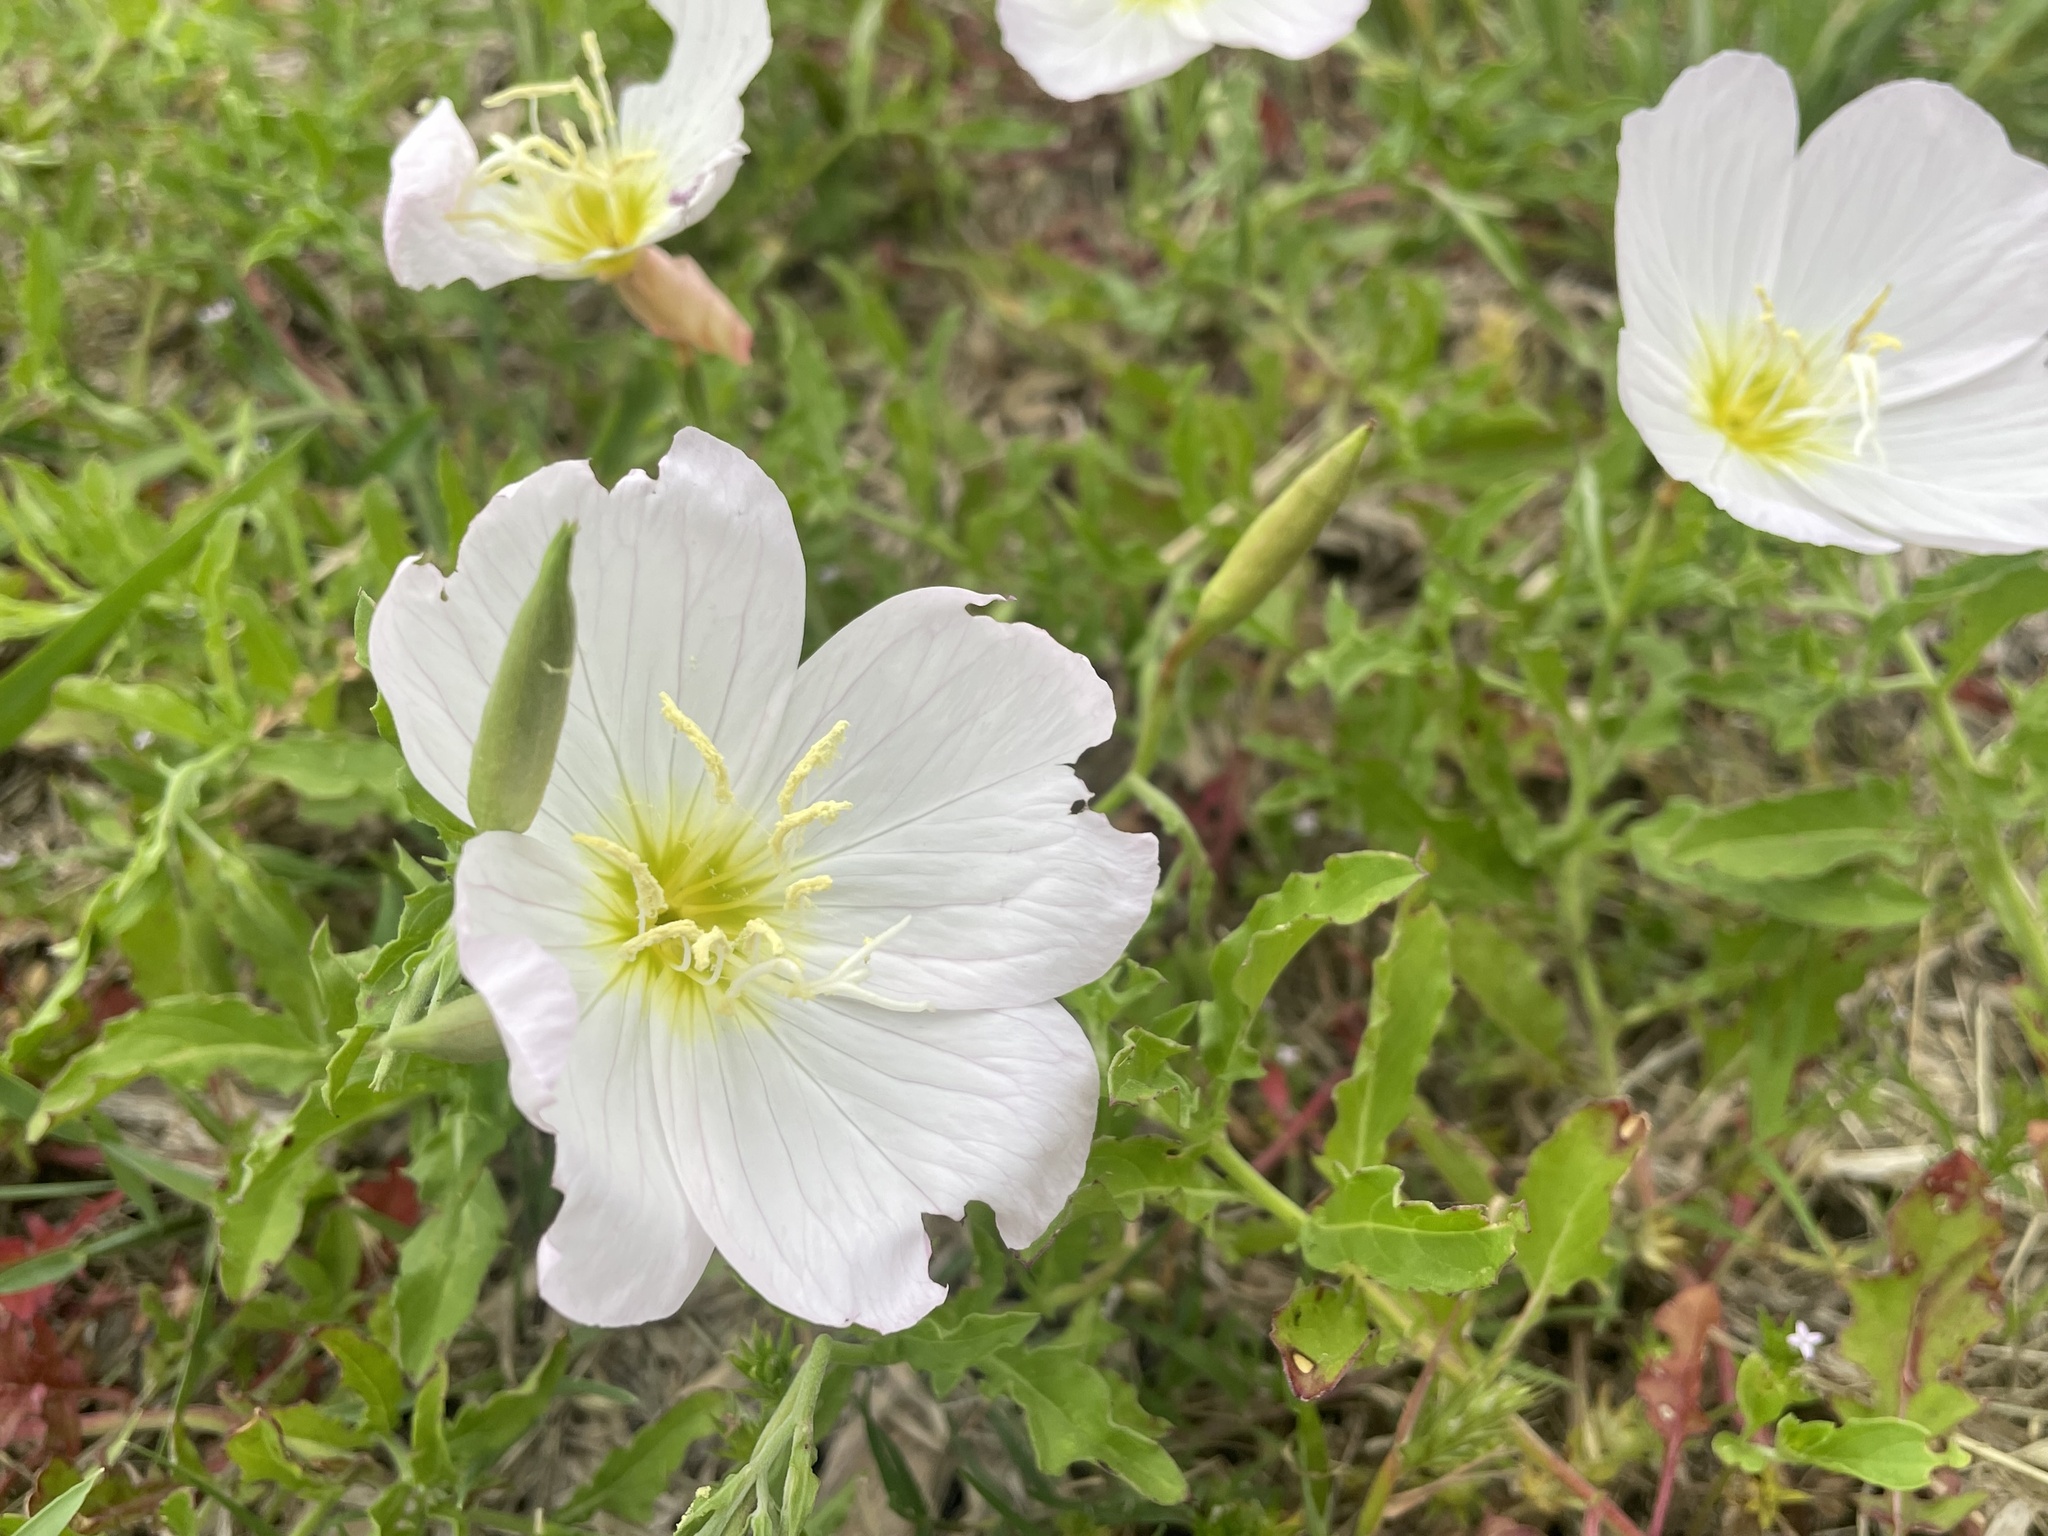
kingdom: Plantae
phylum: Tracheophyta
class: Magnoliopsida
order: Myrtales
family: Onagraceae
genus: Oenothera
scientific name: Oenothera speciosa
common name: White evening-primrose
